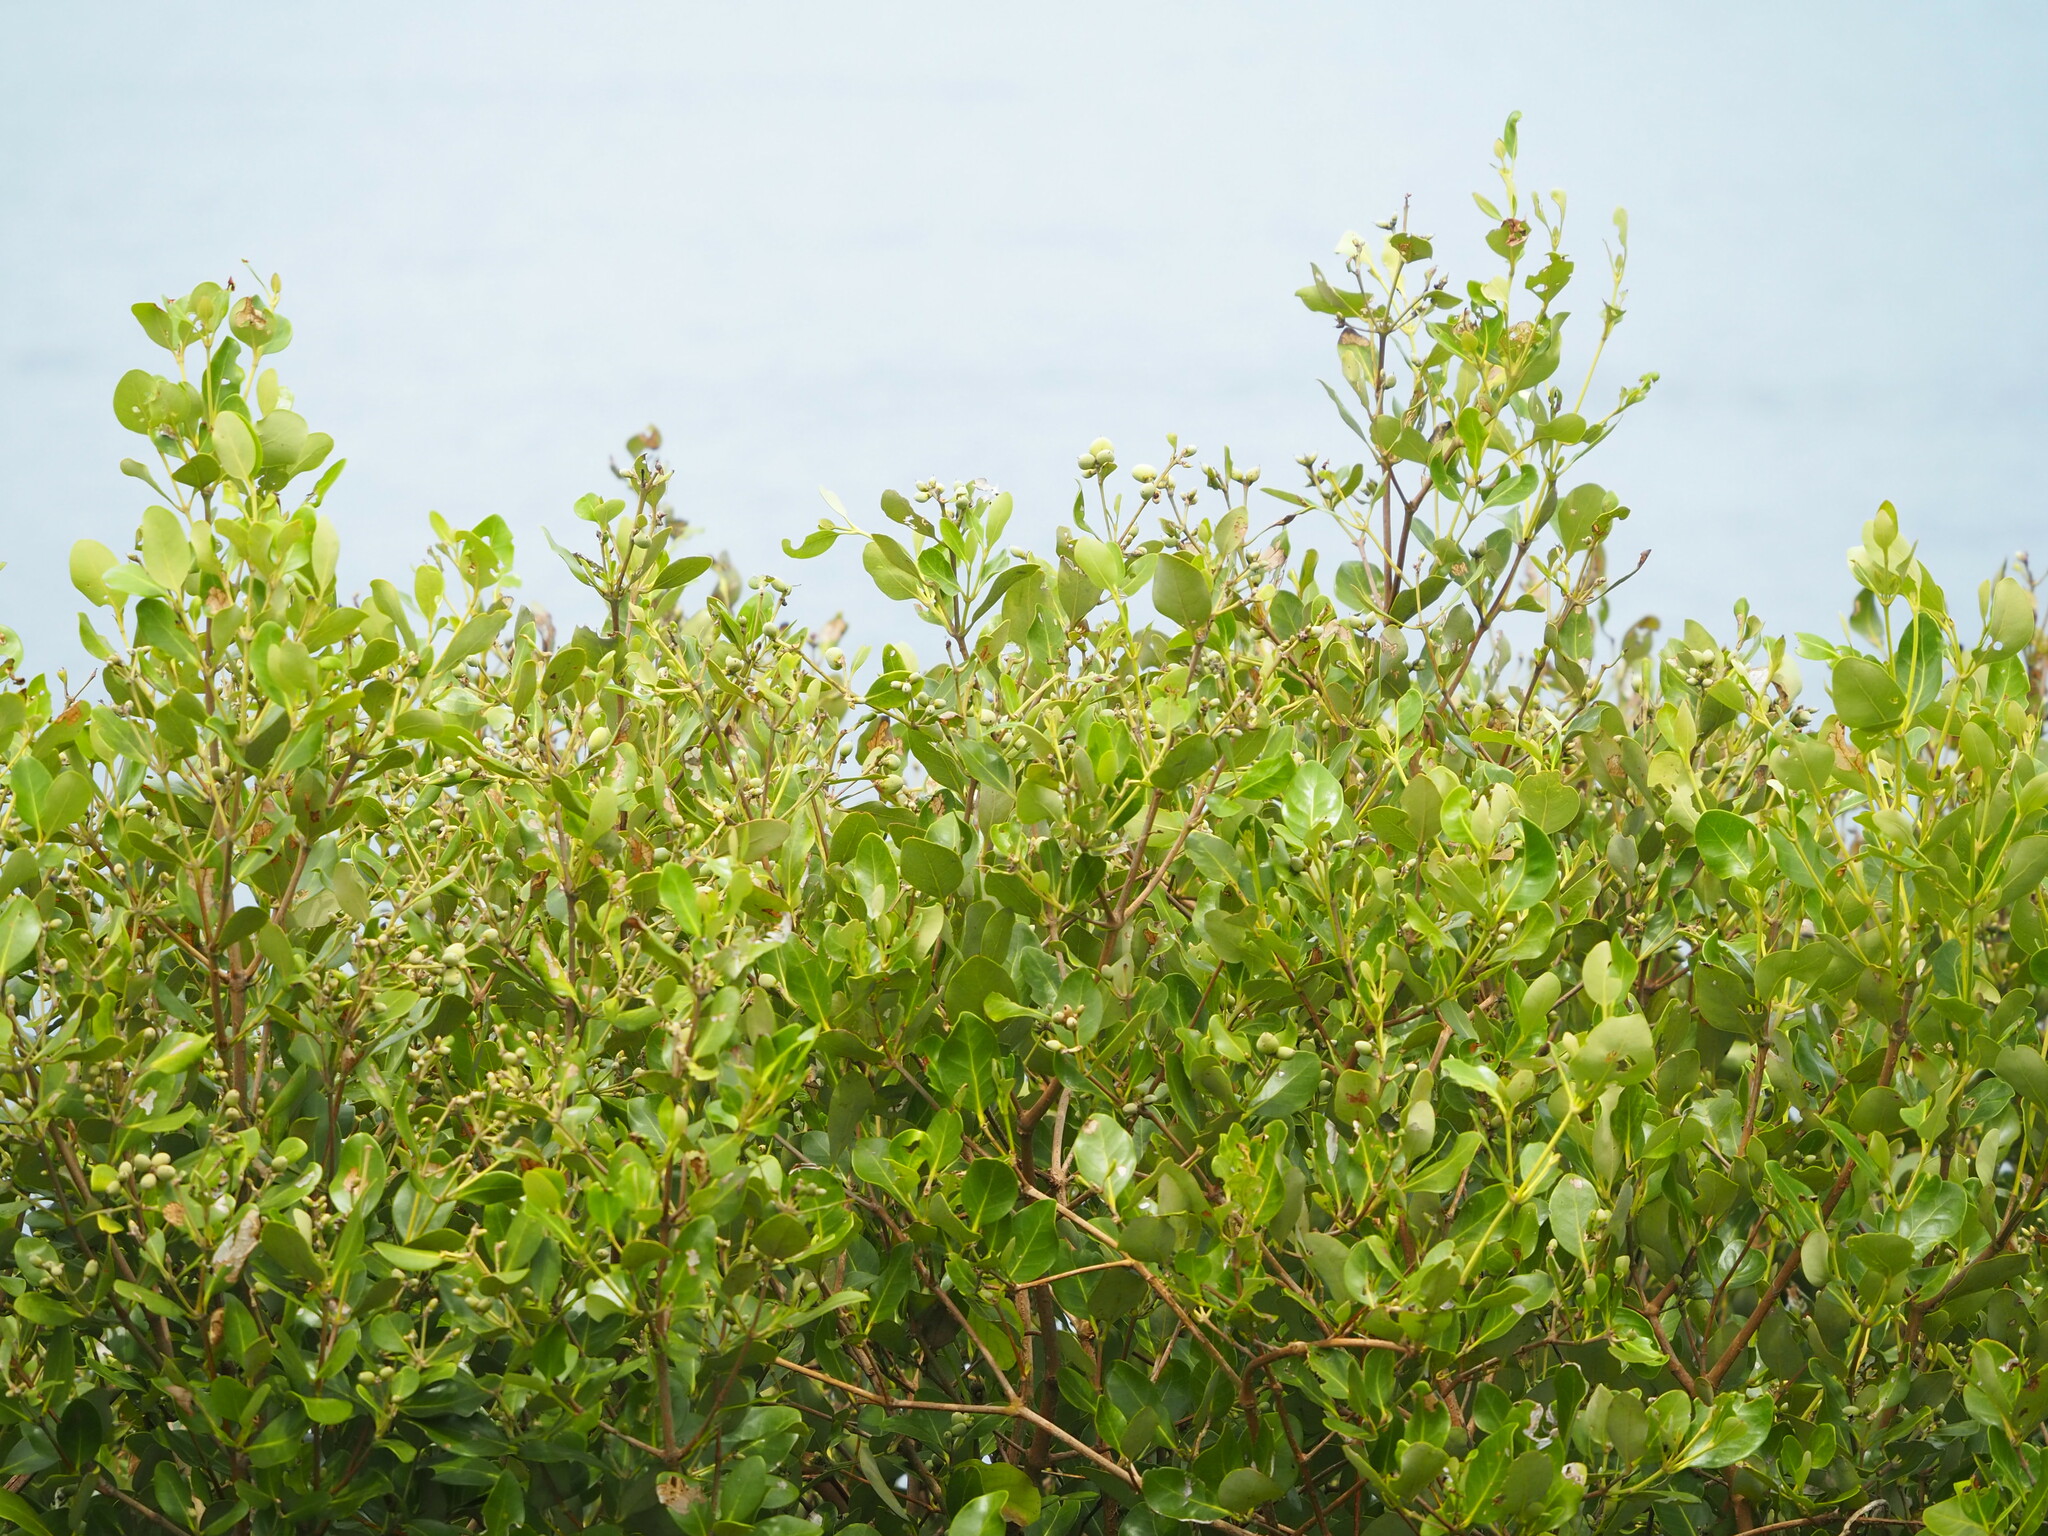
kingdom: Plantae
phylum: Tracheophyta
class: Magnoliopsida
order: Lamiales
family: Acanthaceae
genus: Avicennia
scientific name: Avicennia marina
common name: Gray mangrove
